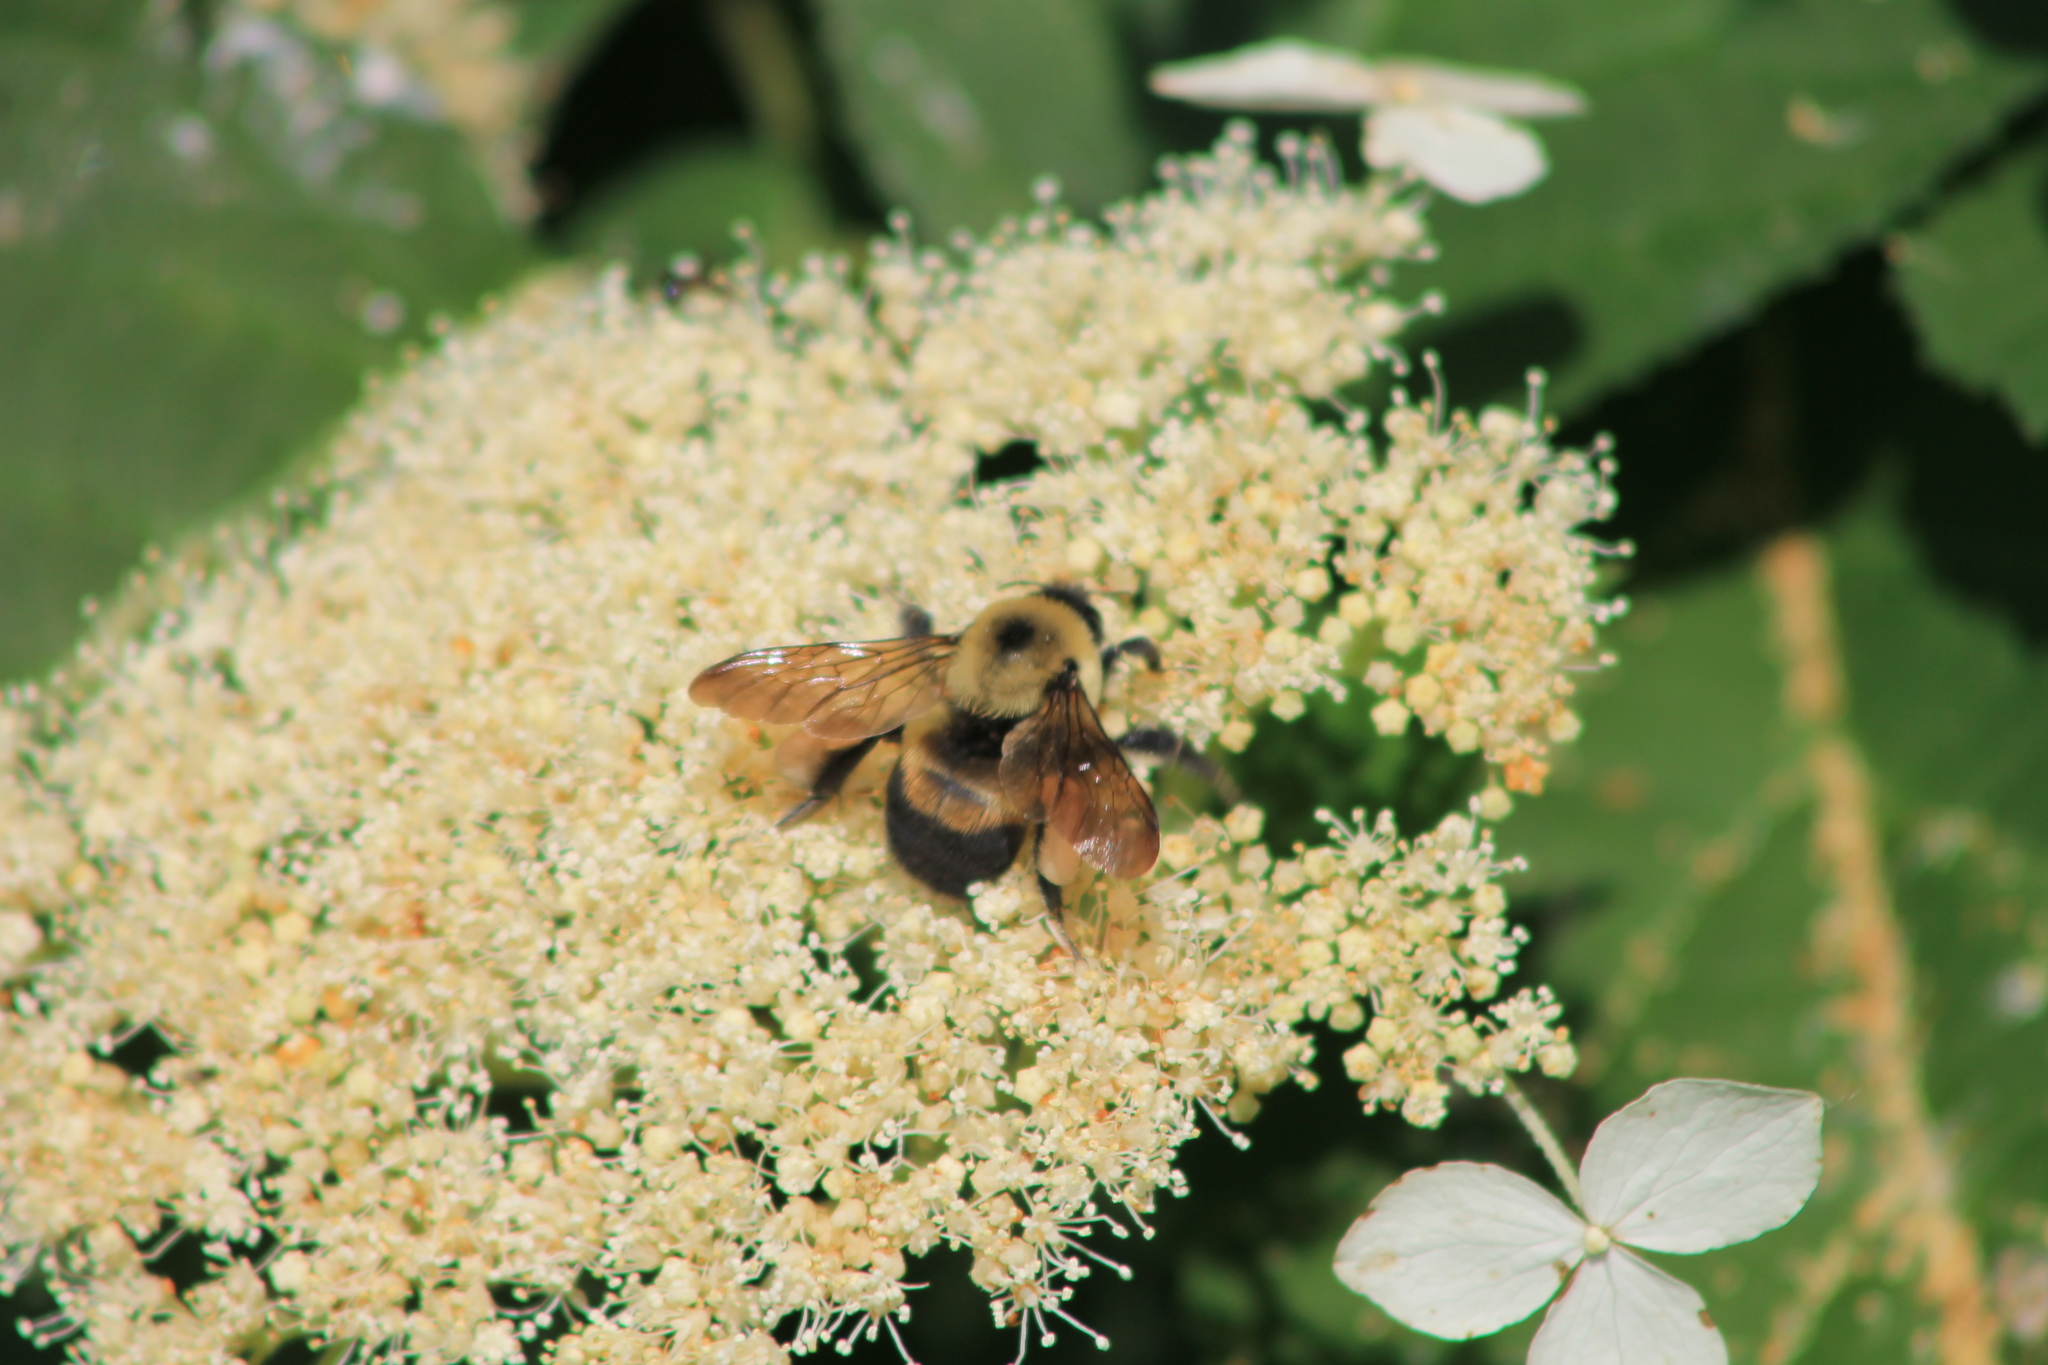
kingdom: Animalia
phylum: Arthropoda
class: Insecta
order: Hymenoptera
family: Apidae
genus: Bombus
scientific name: Bombus griseocollis
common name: Brown-belted bumble bee
